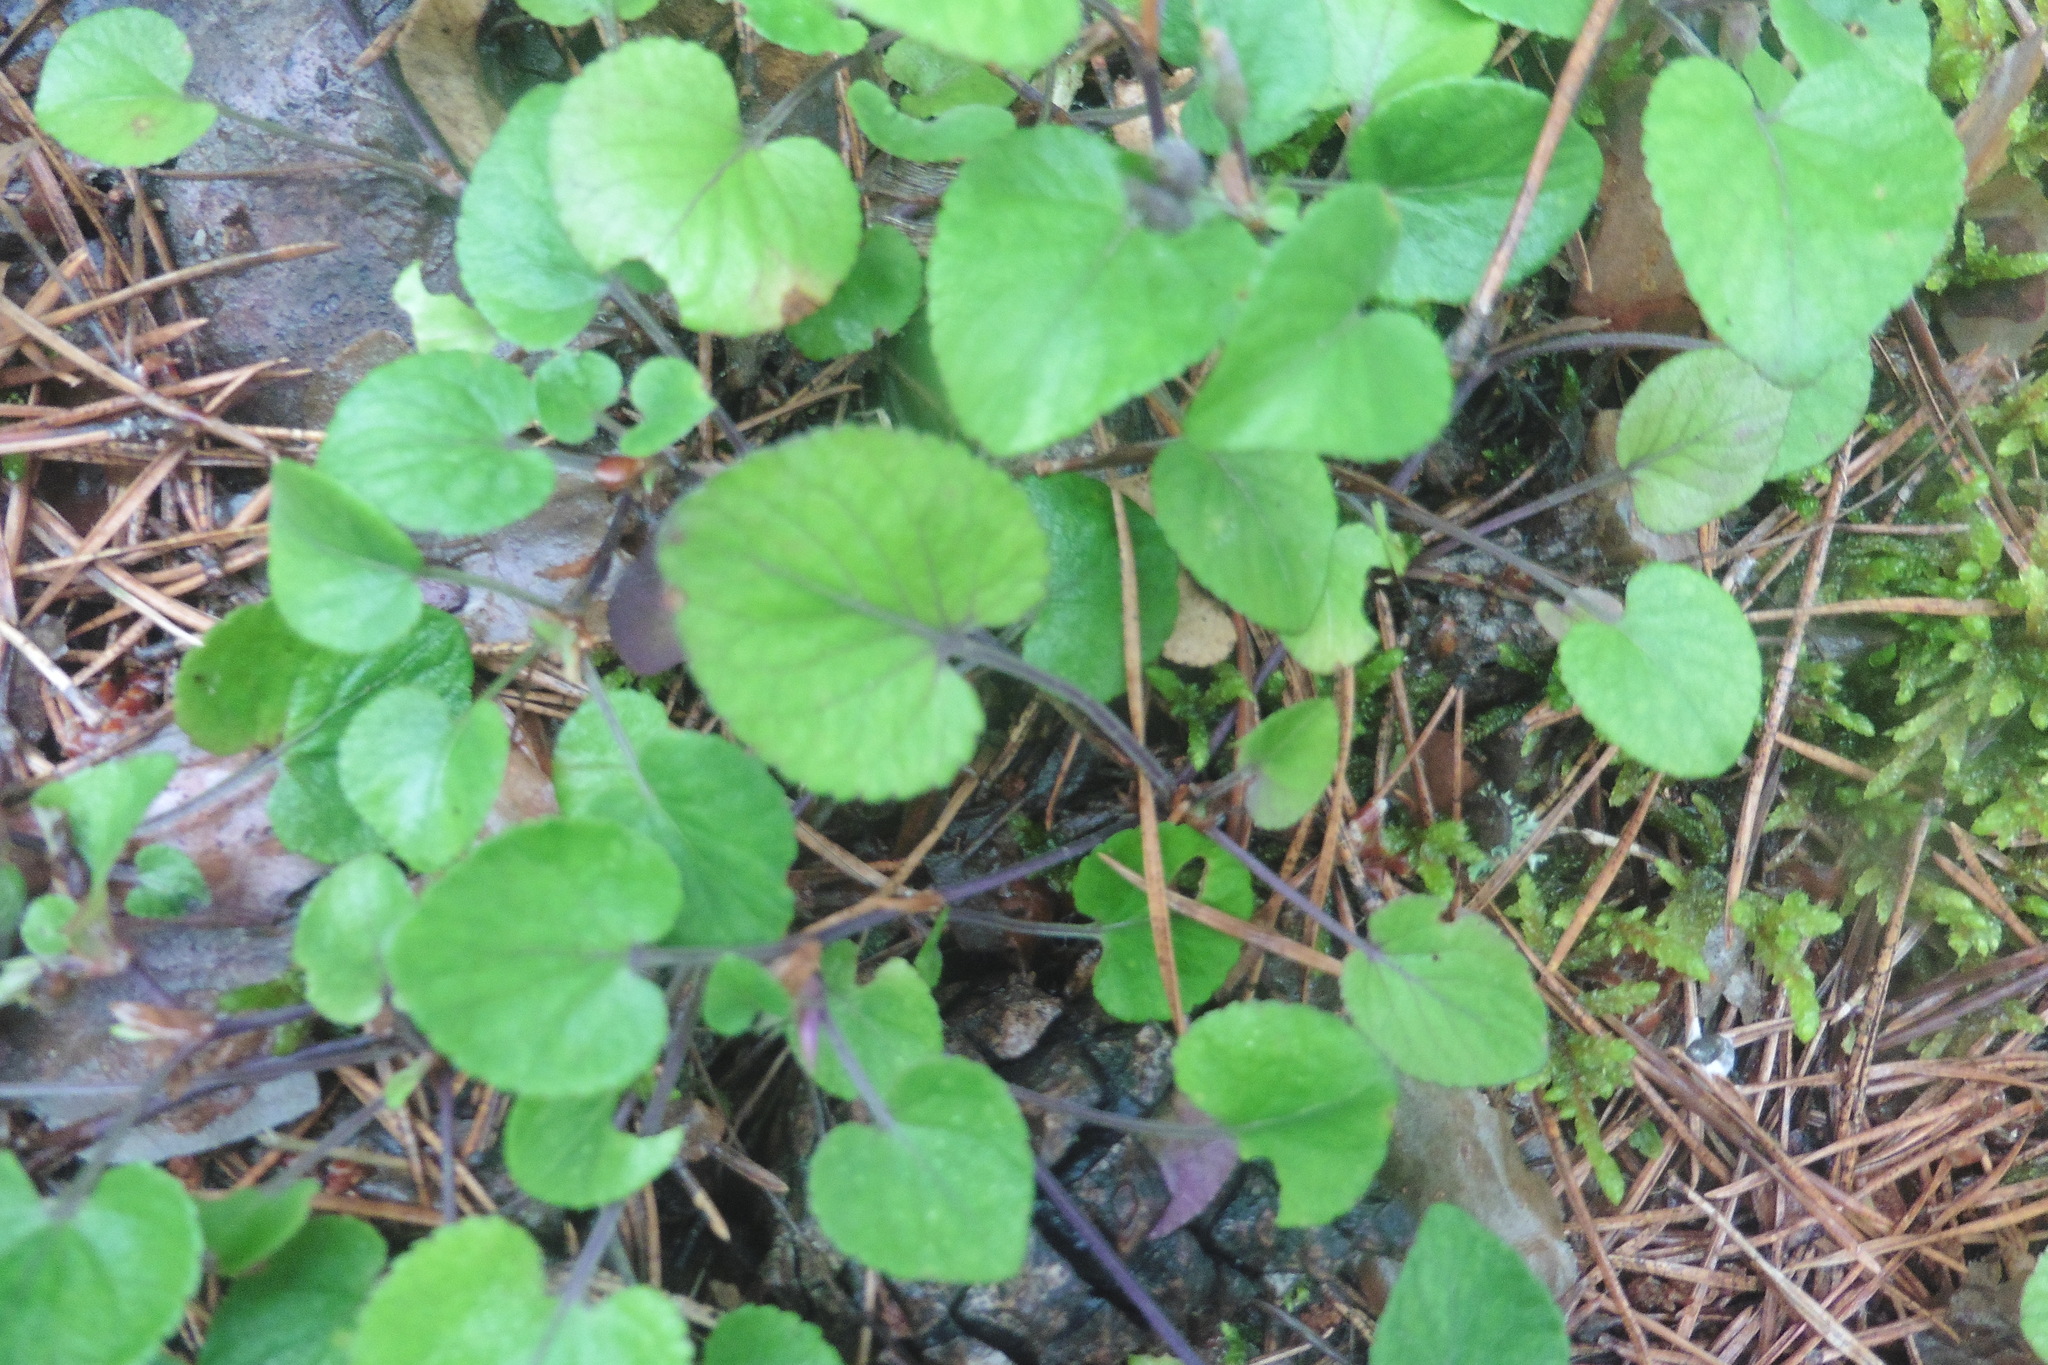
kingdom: Plantae
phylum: Tracheophyta
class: Magnoliopsida
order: Malpighiales
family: Violaceae
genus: Viola
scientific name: Viola rupestris
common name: Teesdale violet
